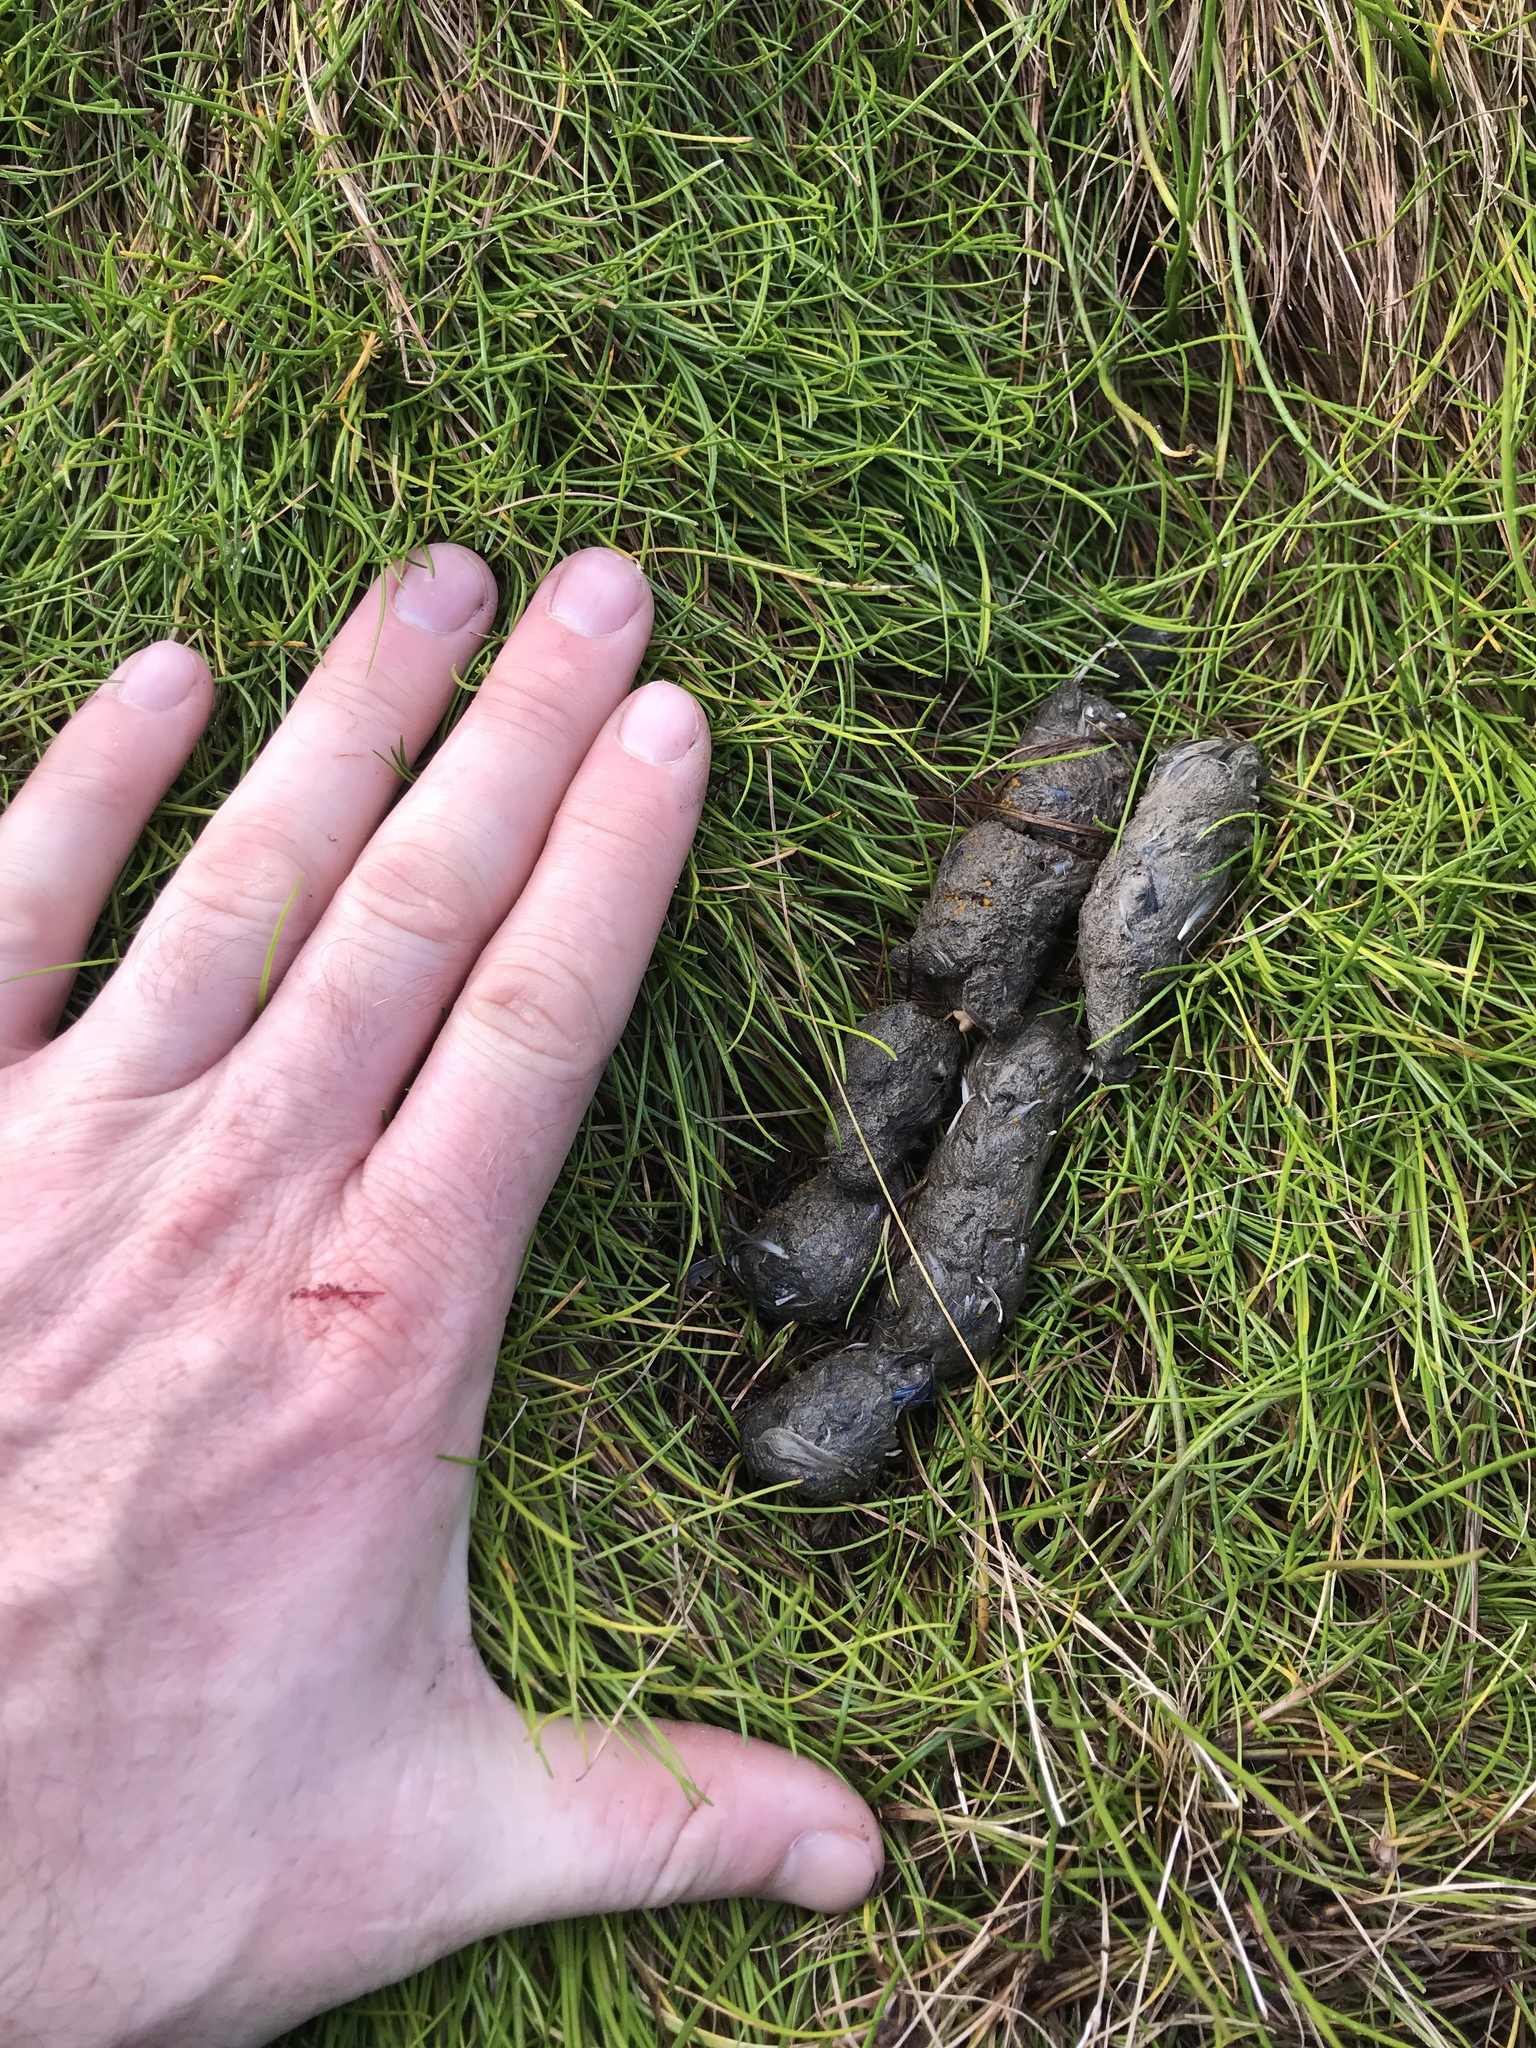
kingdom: Animalia
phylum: Chordata
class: Mammalia
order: Carnivora
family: Felidae
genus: Felis
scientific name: Felis catus
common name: Domestic cat
